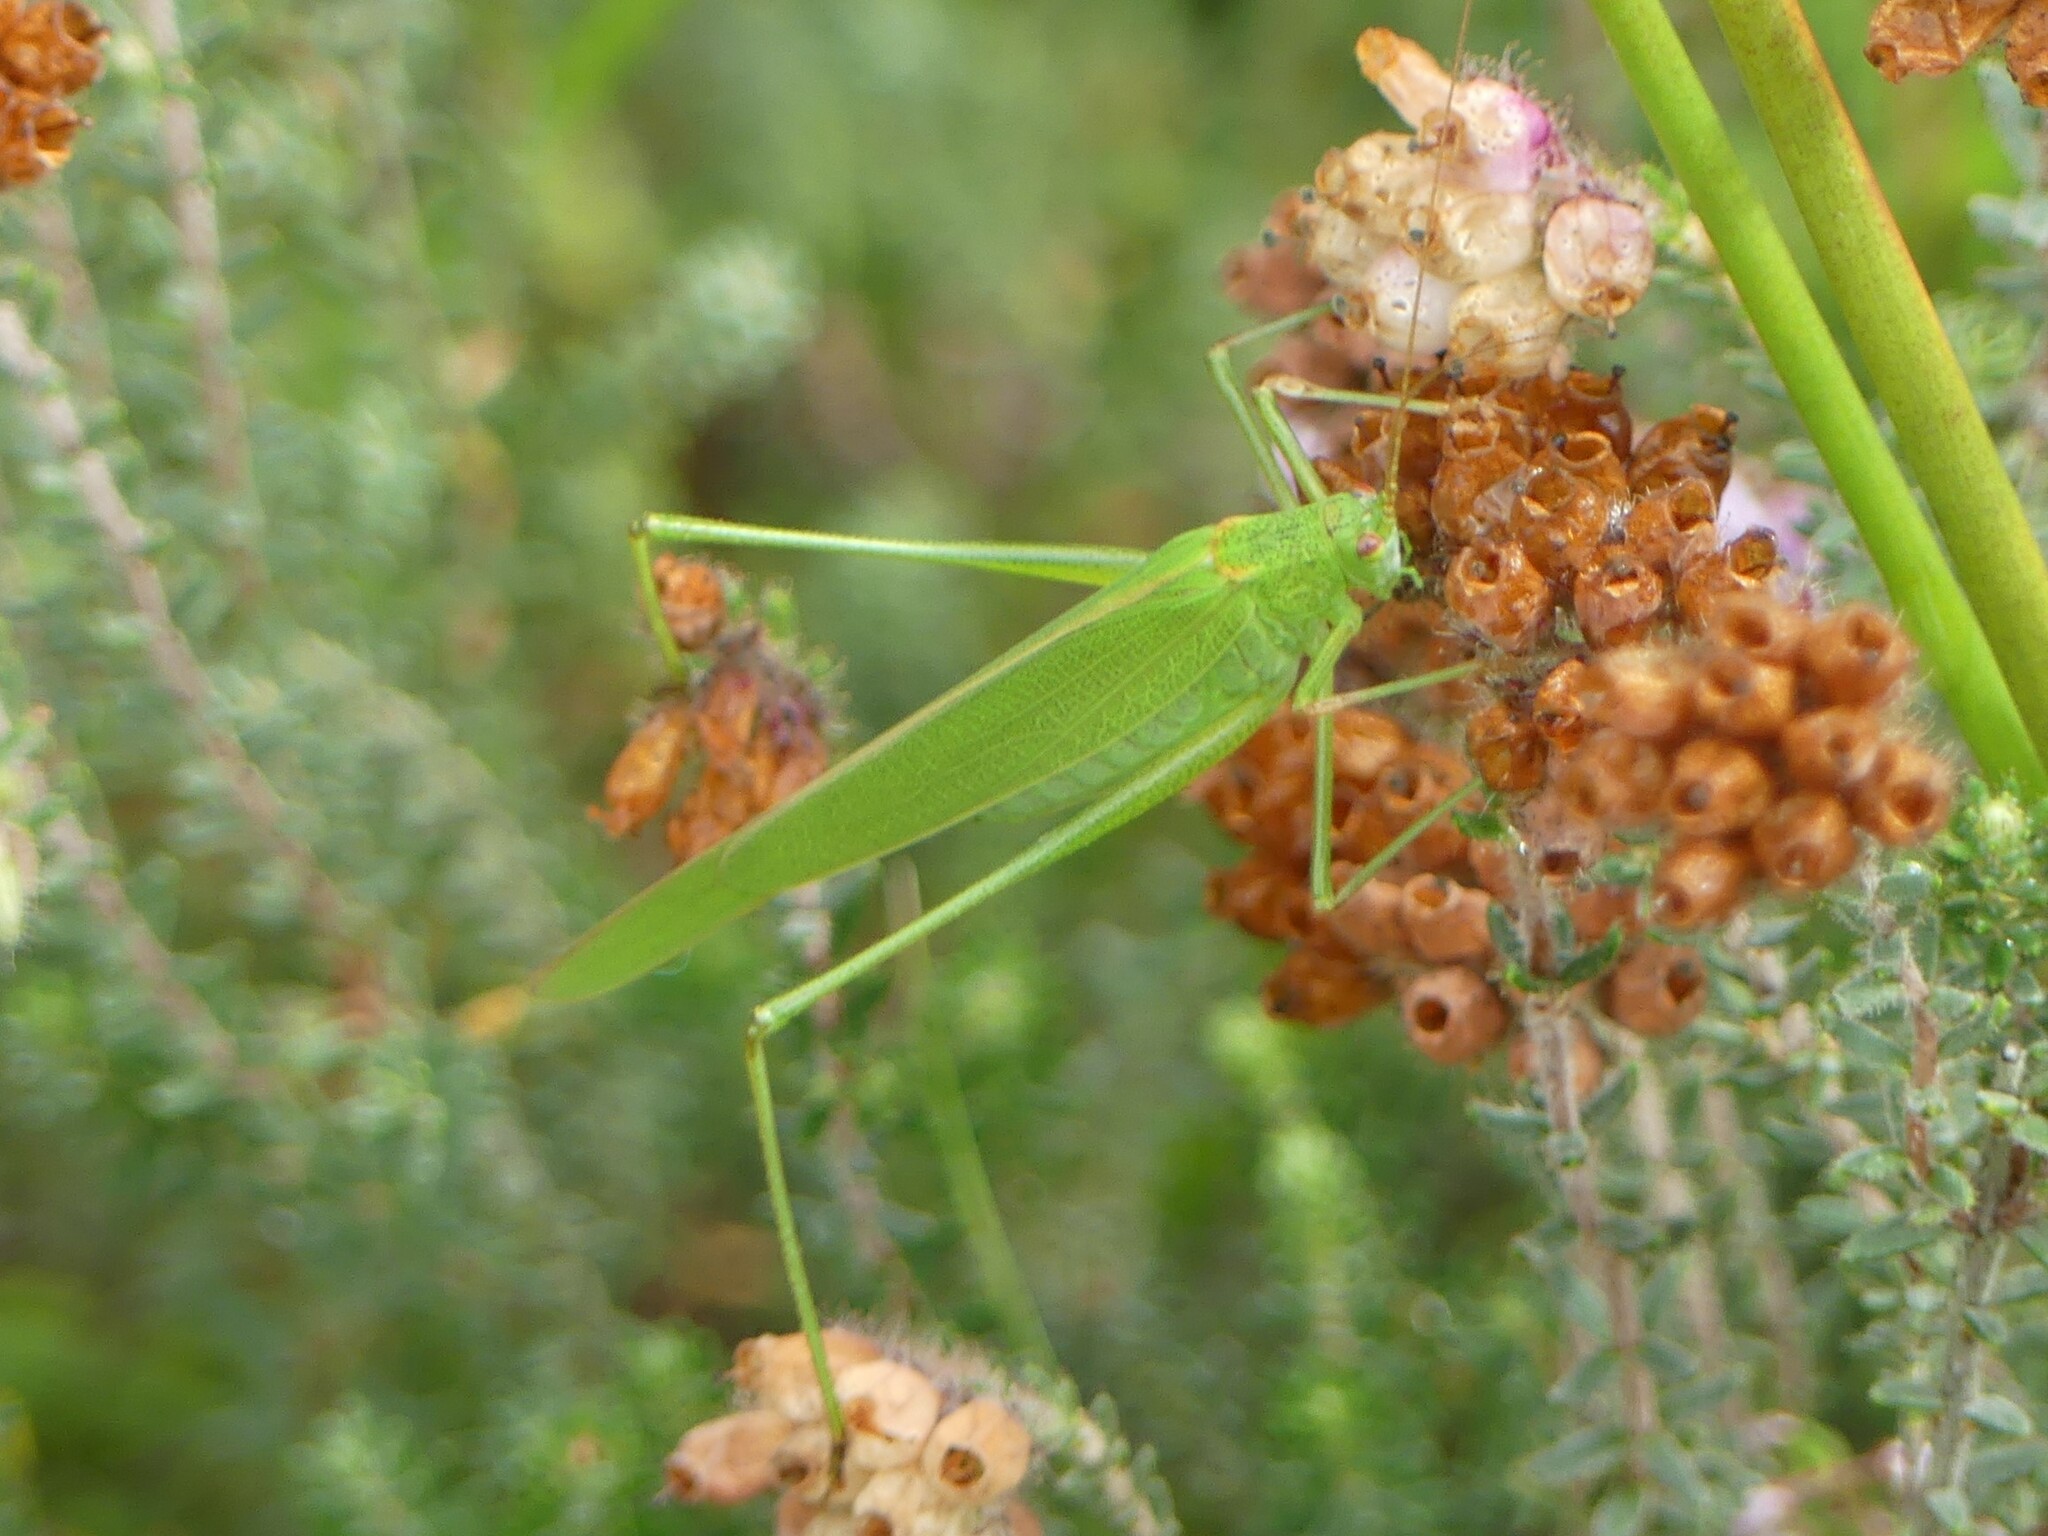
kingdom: Animalia
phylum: Arthropoda
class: Insecta
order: Orthoptera
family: Tettigoniidae
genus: Phaneroptera
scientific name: Phaneroptera falcata
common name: Sickle-bearing bush-cricket
